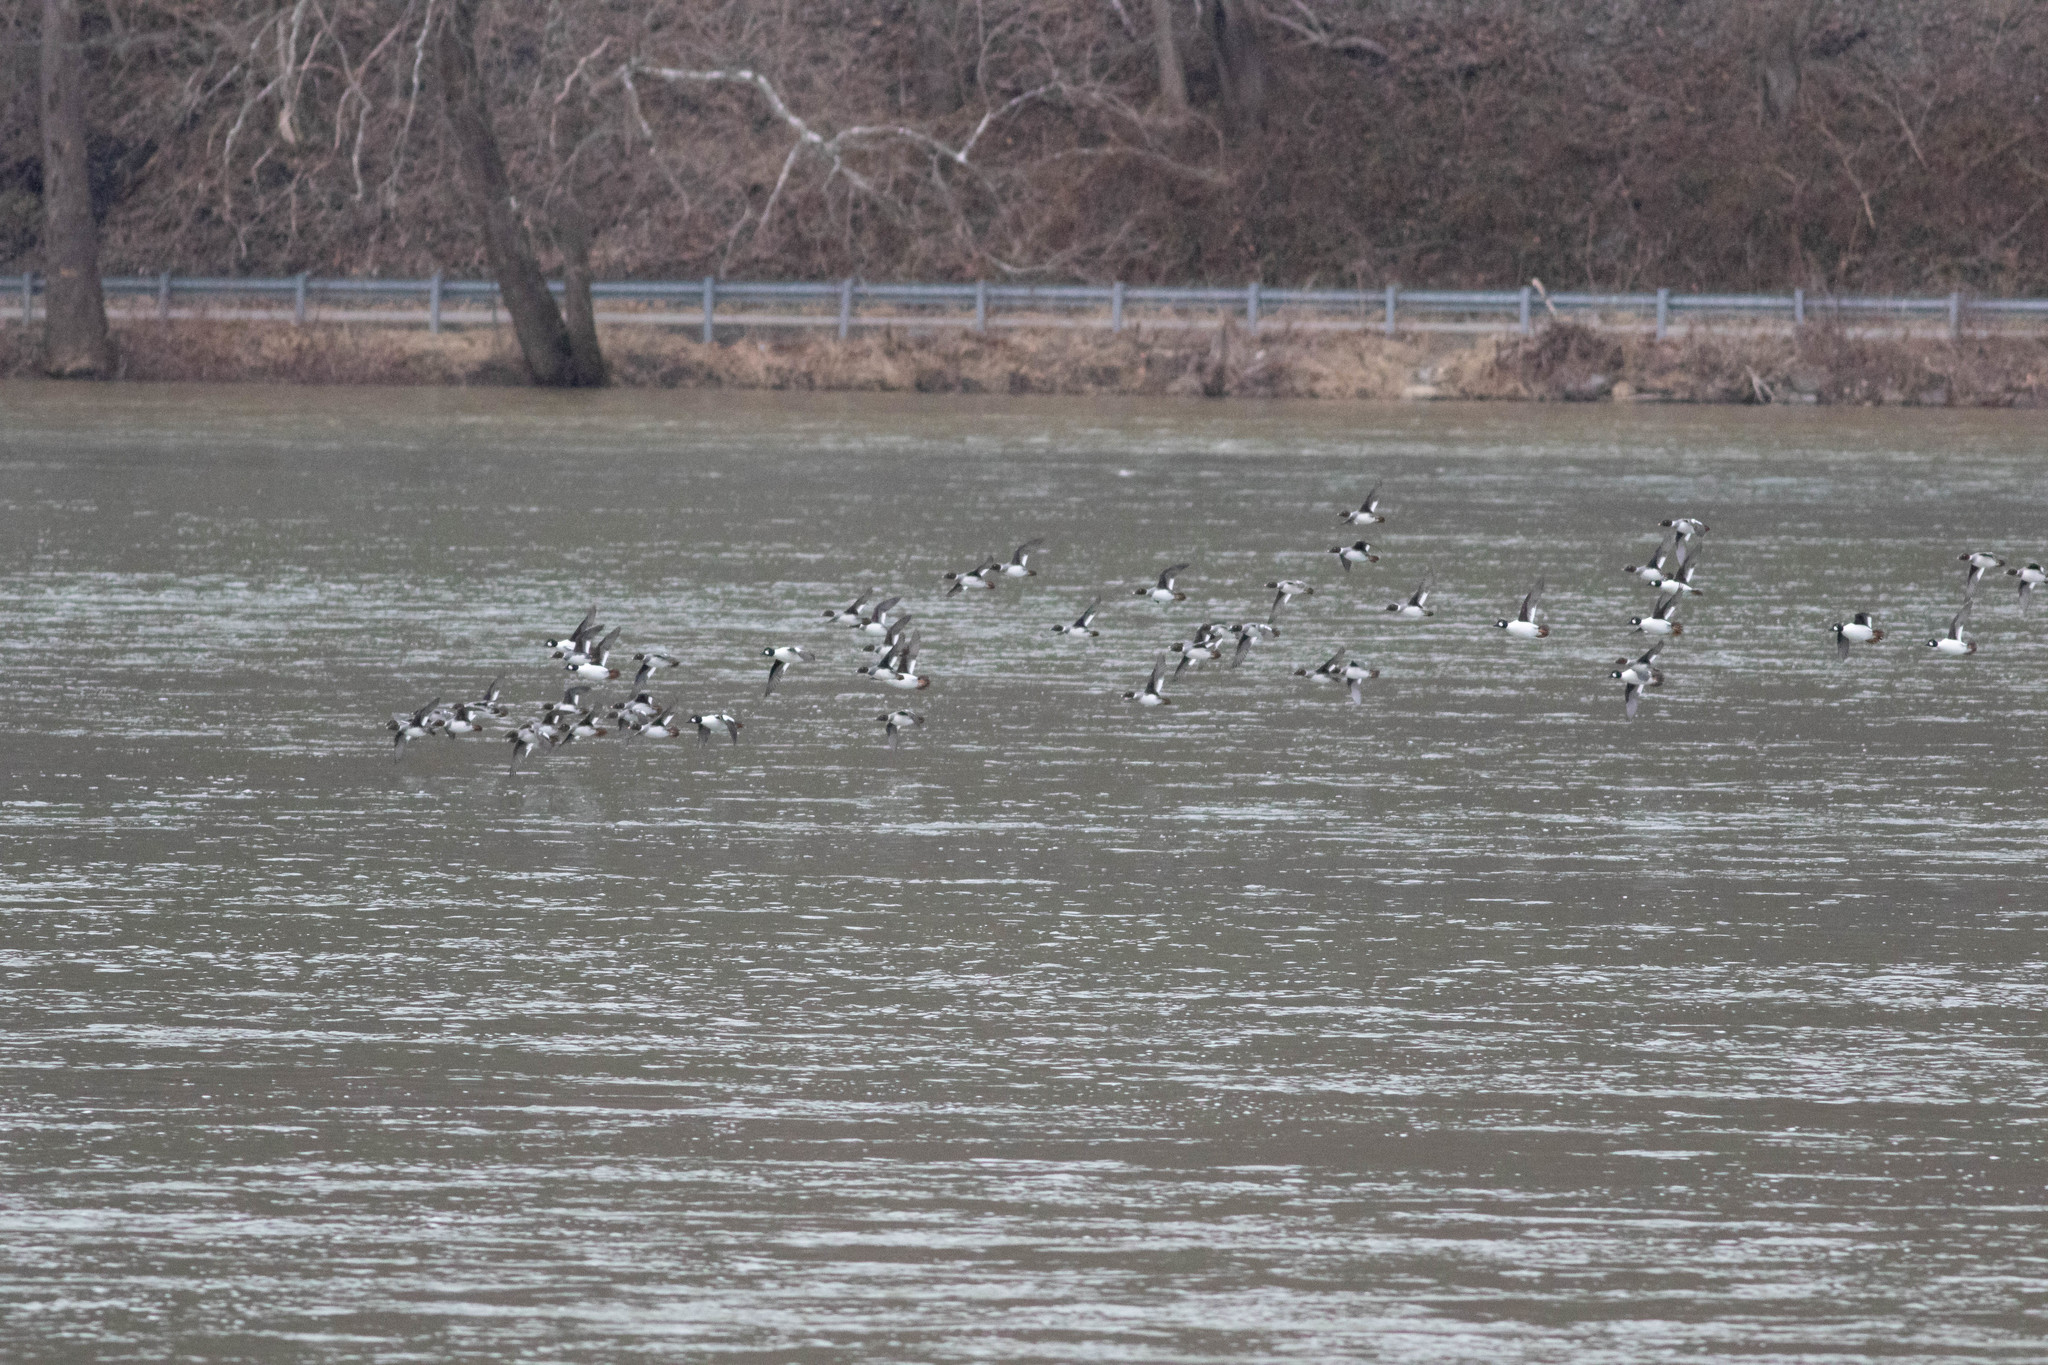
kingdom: Animalia
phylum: Chordata
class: Aves
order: Anseriformes
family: Anatidae
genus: Bucephala
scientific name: Bucephala clangula
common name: Common goldeneye
